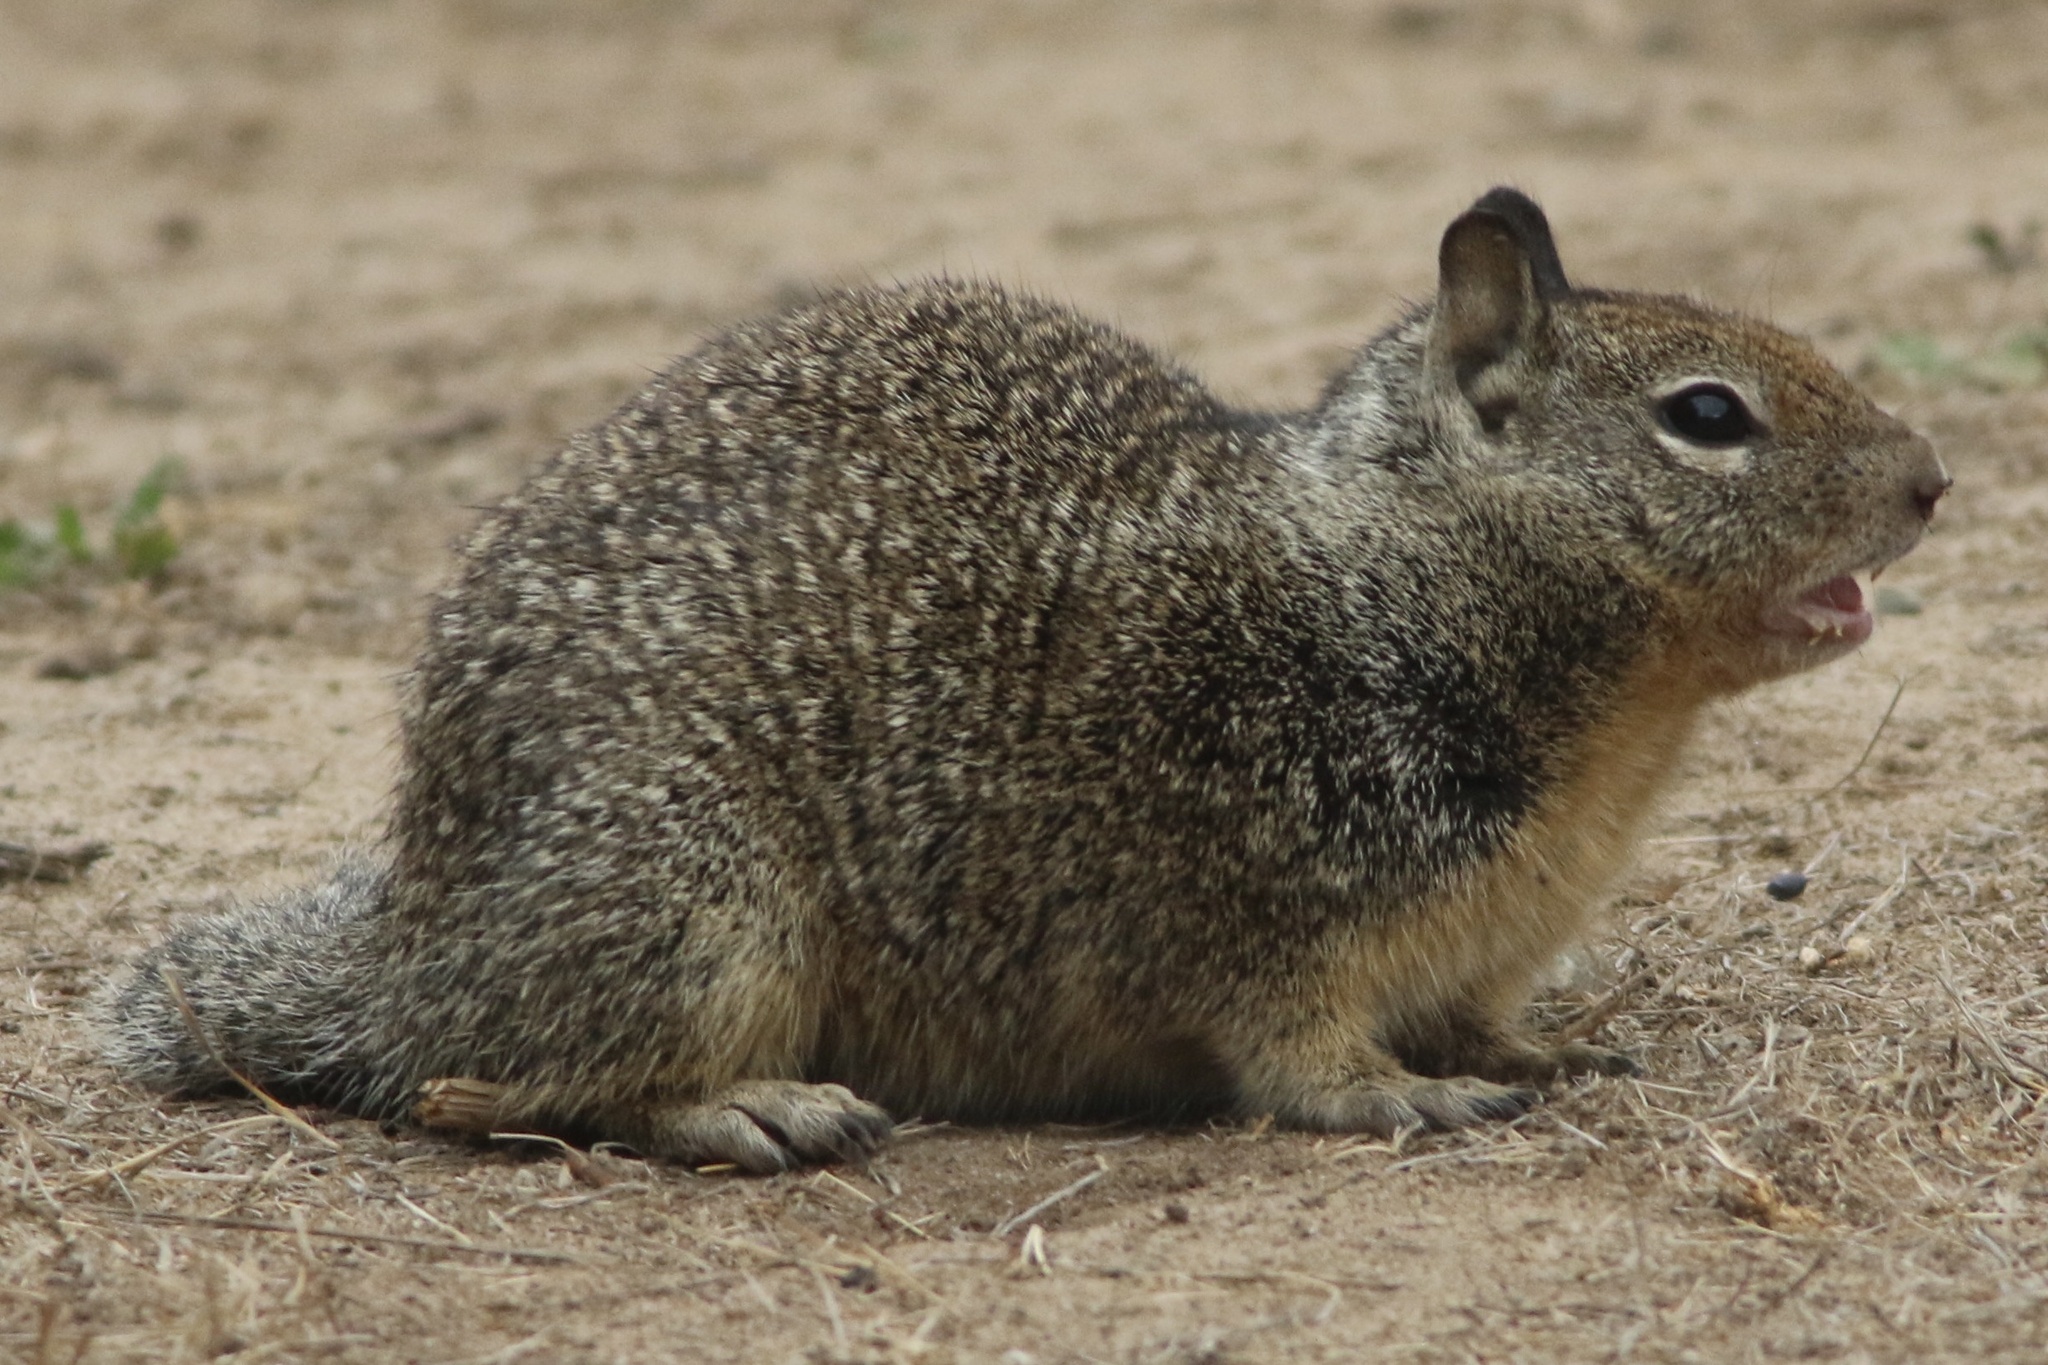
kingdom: Animalia
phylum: Chordata
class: Mammalia
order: Rodentia
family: Sciuridae
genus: Otospermophilus
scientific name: Otospermophilus beecheyi
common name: California ground squirrel
